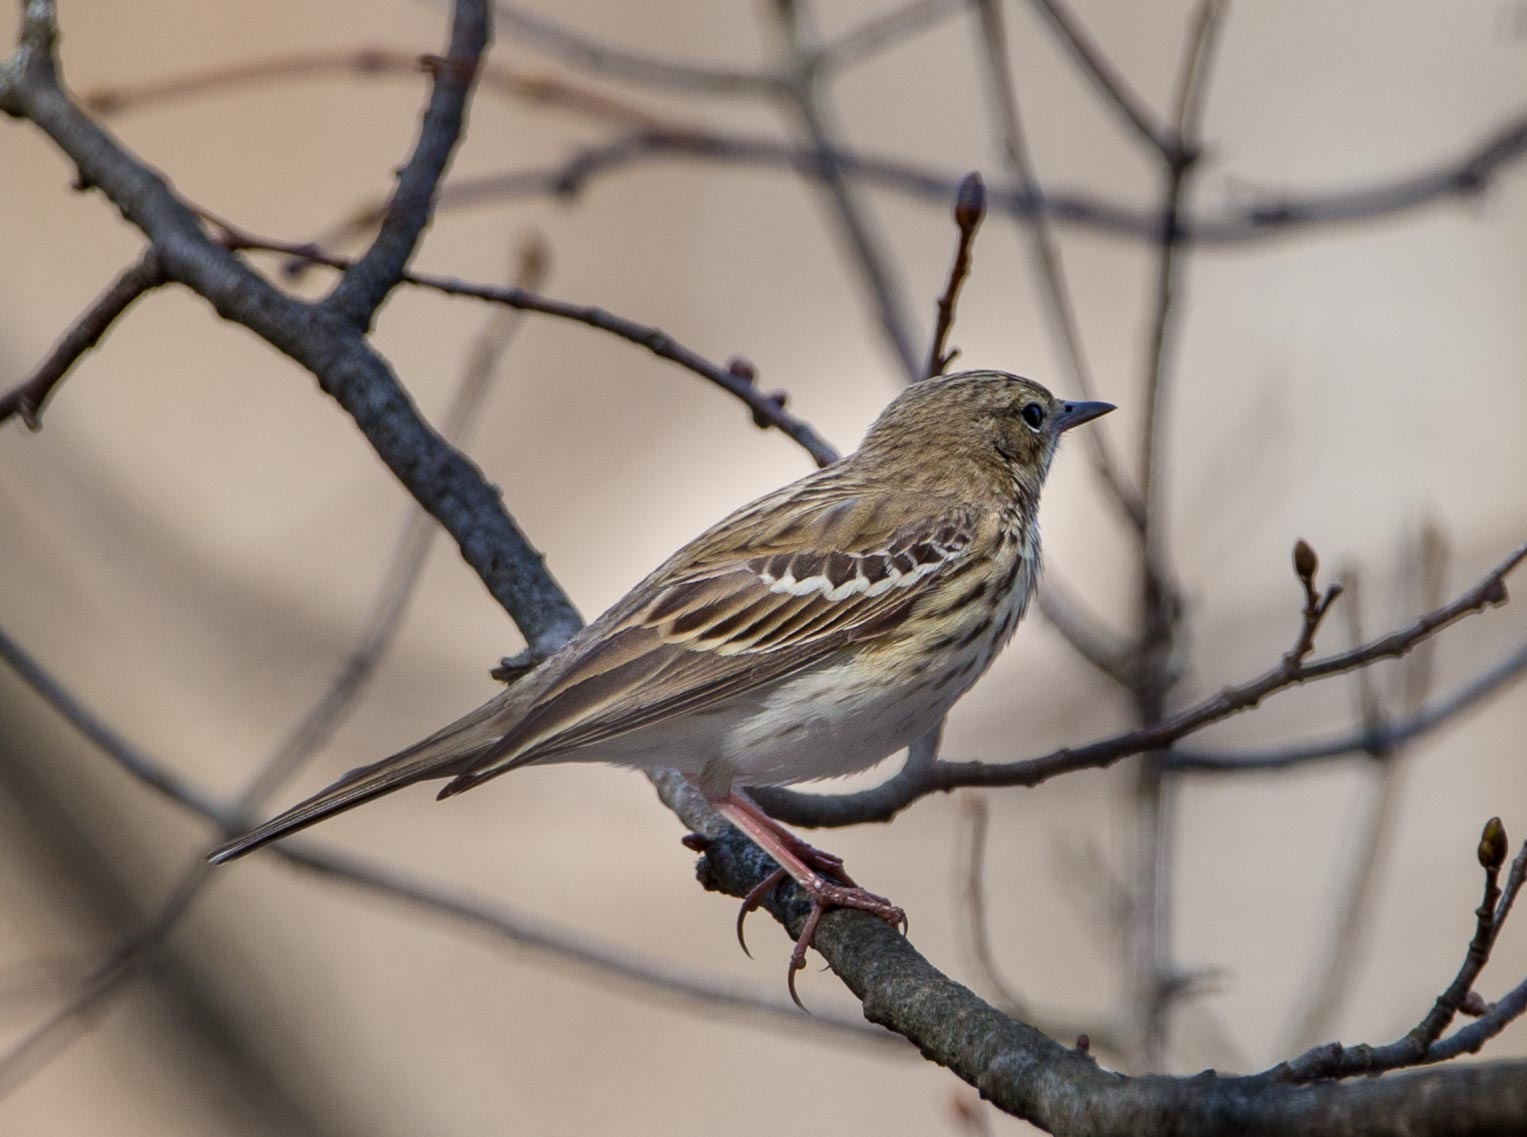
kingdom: Animalia
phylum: Chordata
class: Aves
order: Passeriformes
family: Motacillidae
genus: Anthus
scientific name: Anthus trivialis
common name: Tree pipit
